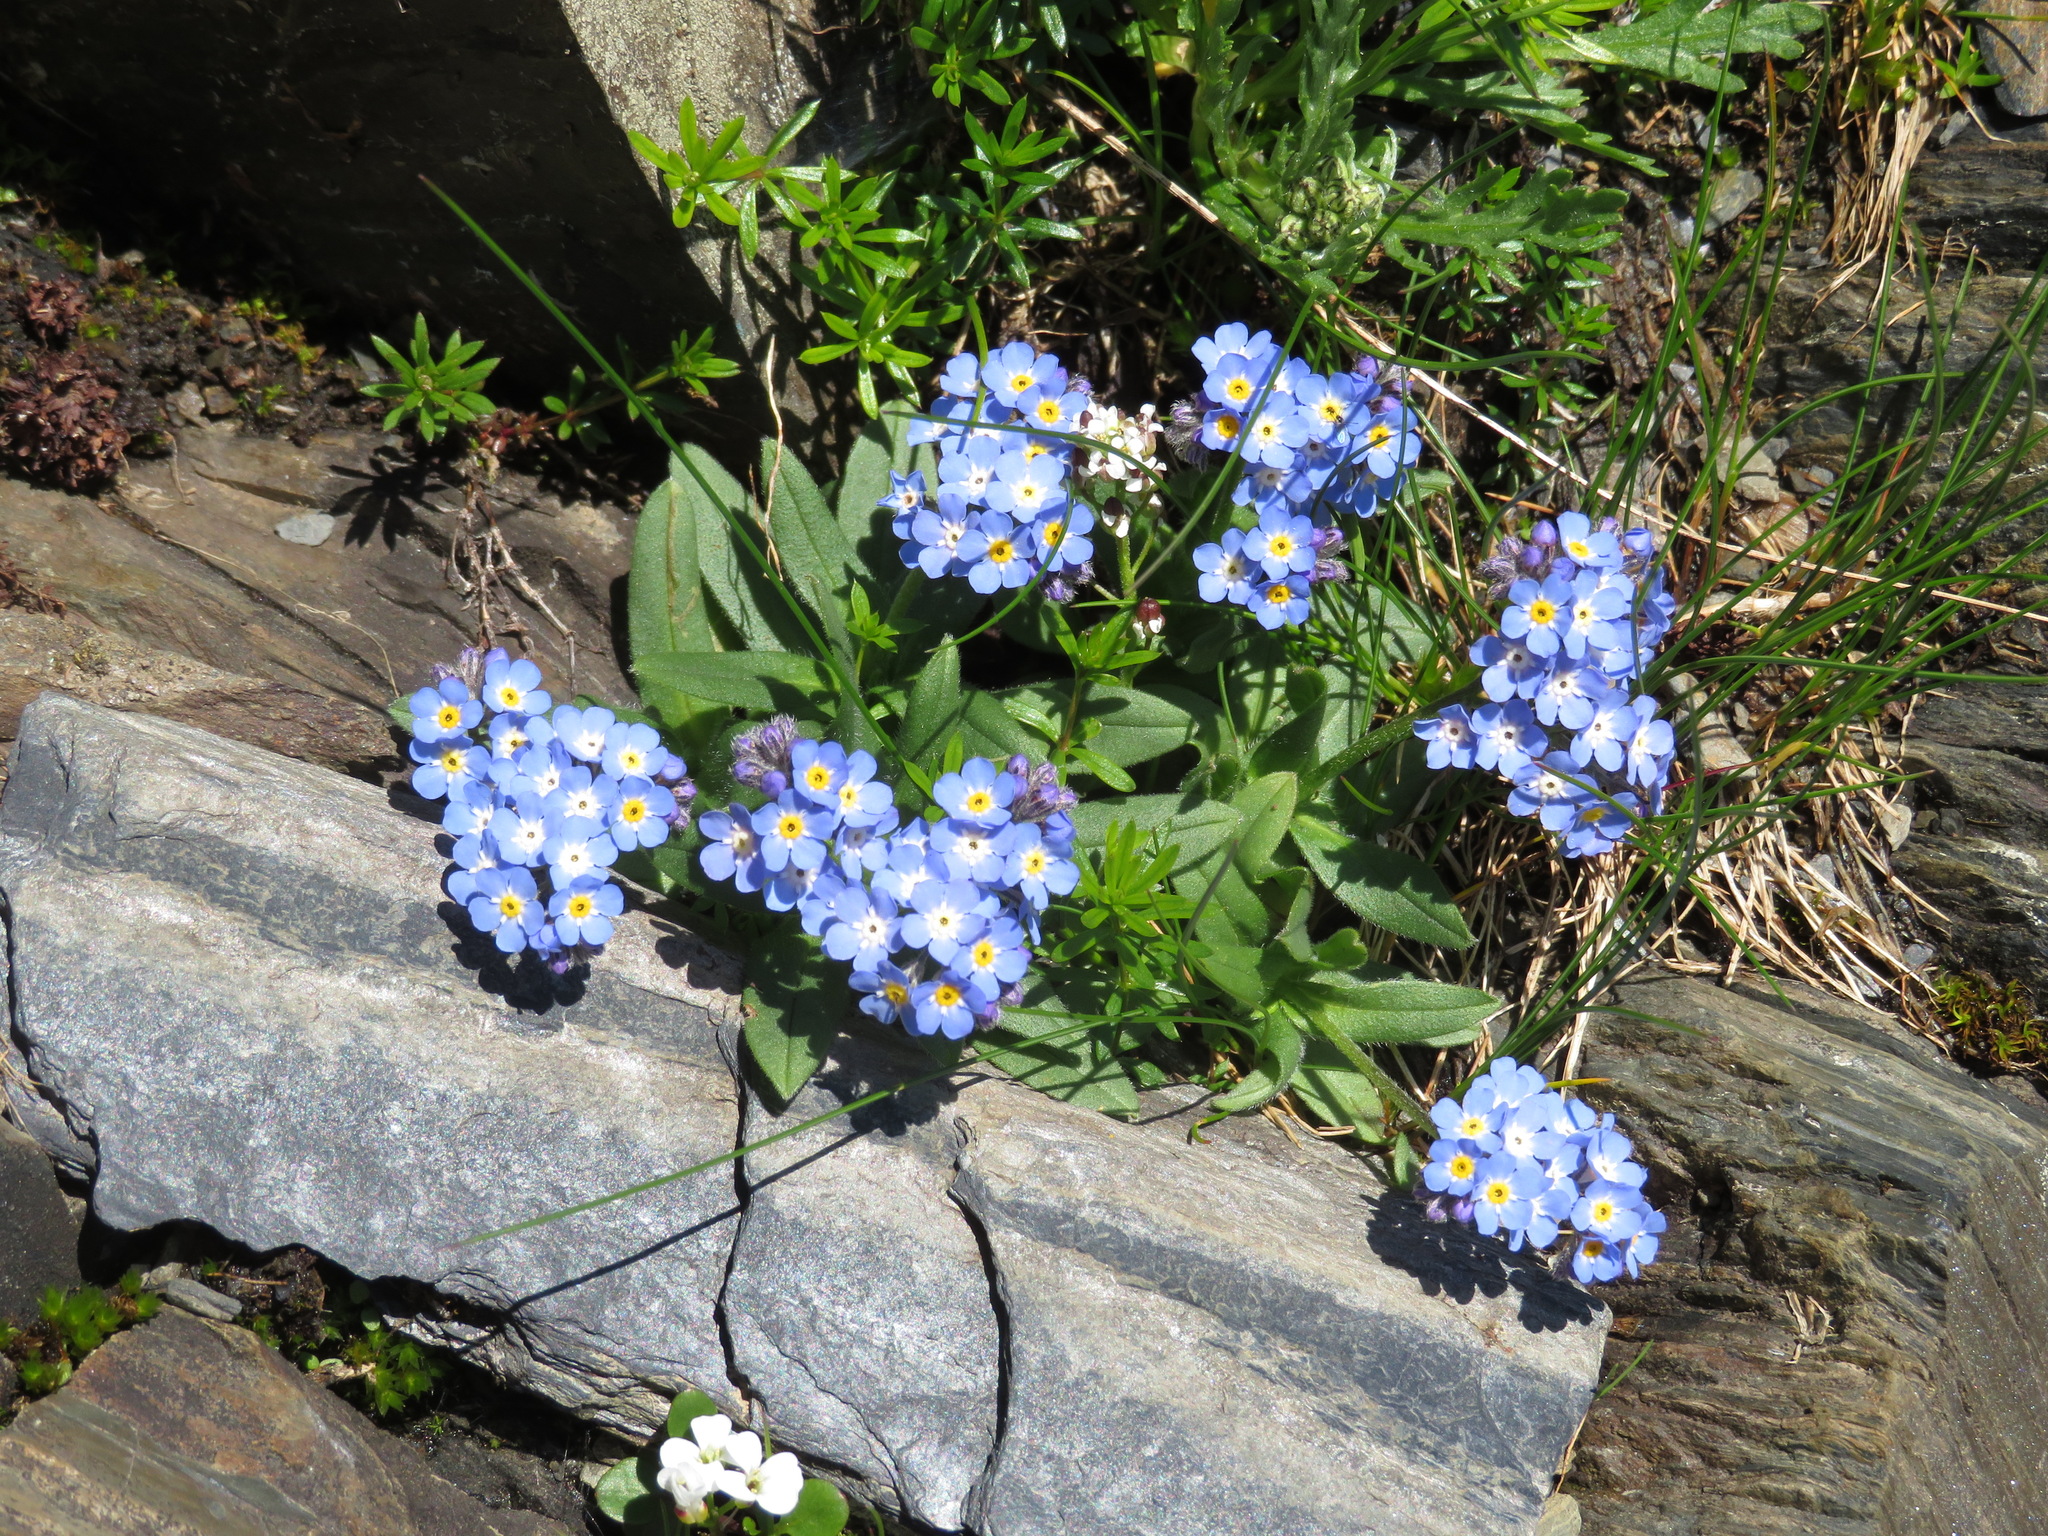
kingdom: Plantae
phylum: Tracheophyta
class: Magnoliopsida
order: Boraginales
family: Boraginaceae
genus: Myosotis
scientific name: Myosotis alpestris
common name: Alpine forget-me-not
